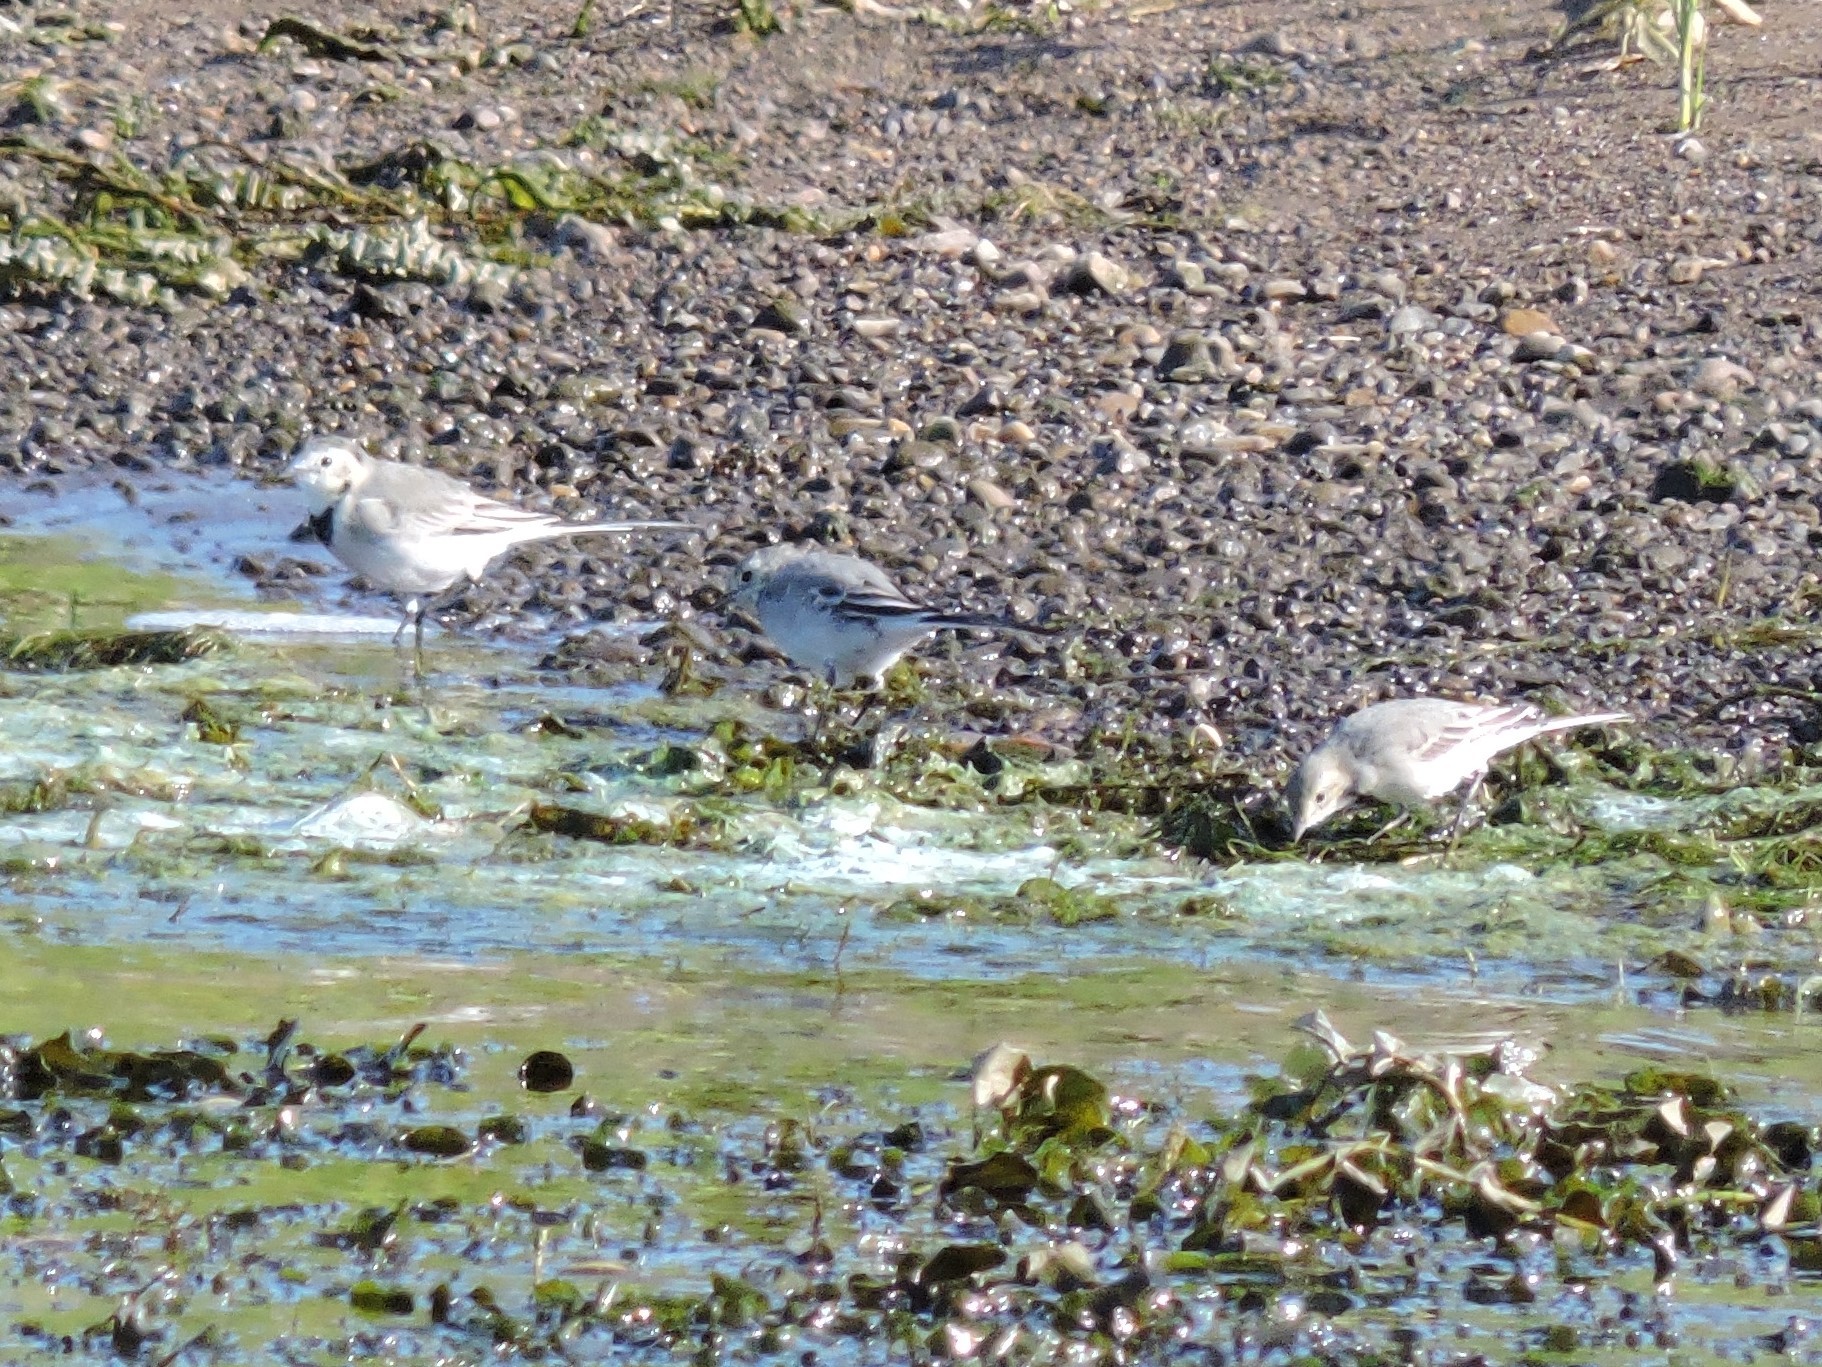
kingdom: Animalia
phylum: Chordata
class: Aves
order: Passeriformes
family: Motacillidae
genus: Motacilla
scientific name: Motacilla alba
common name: White wagtail
